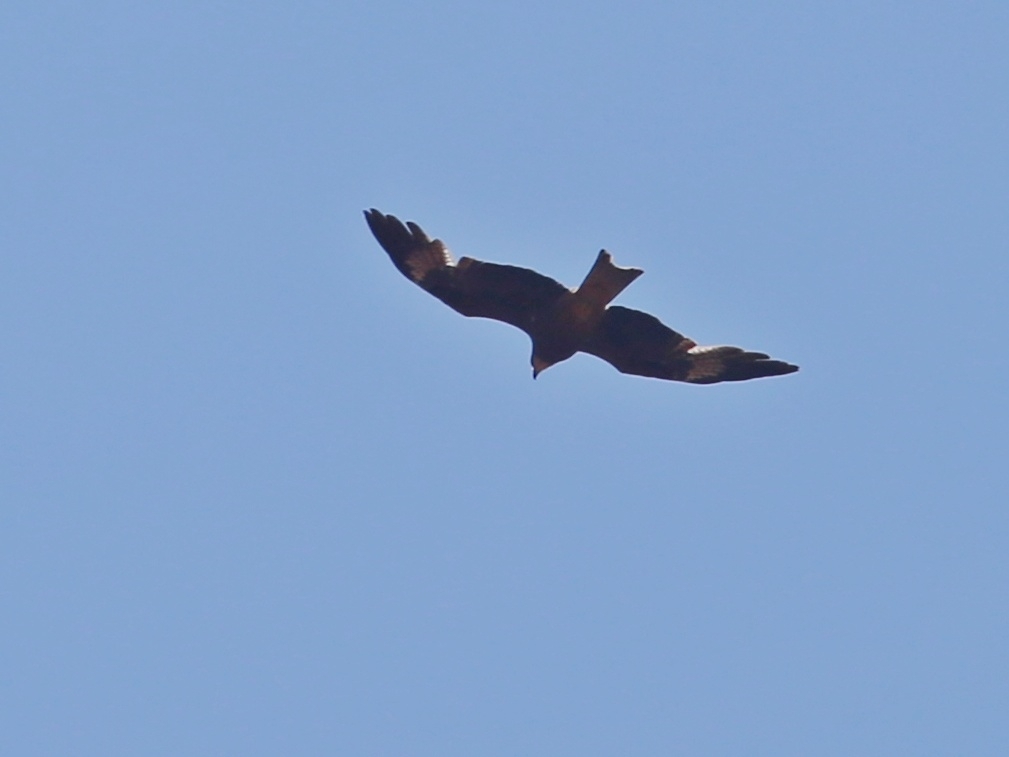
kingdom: Animalia
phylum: Chordata
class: Aves
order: Accipitriformes
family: Accipitridae
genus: Milvus
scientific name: Milvus migrans
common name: Black kite
